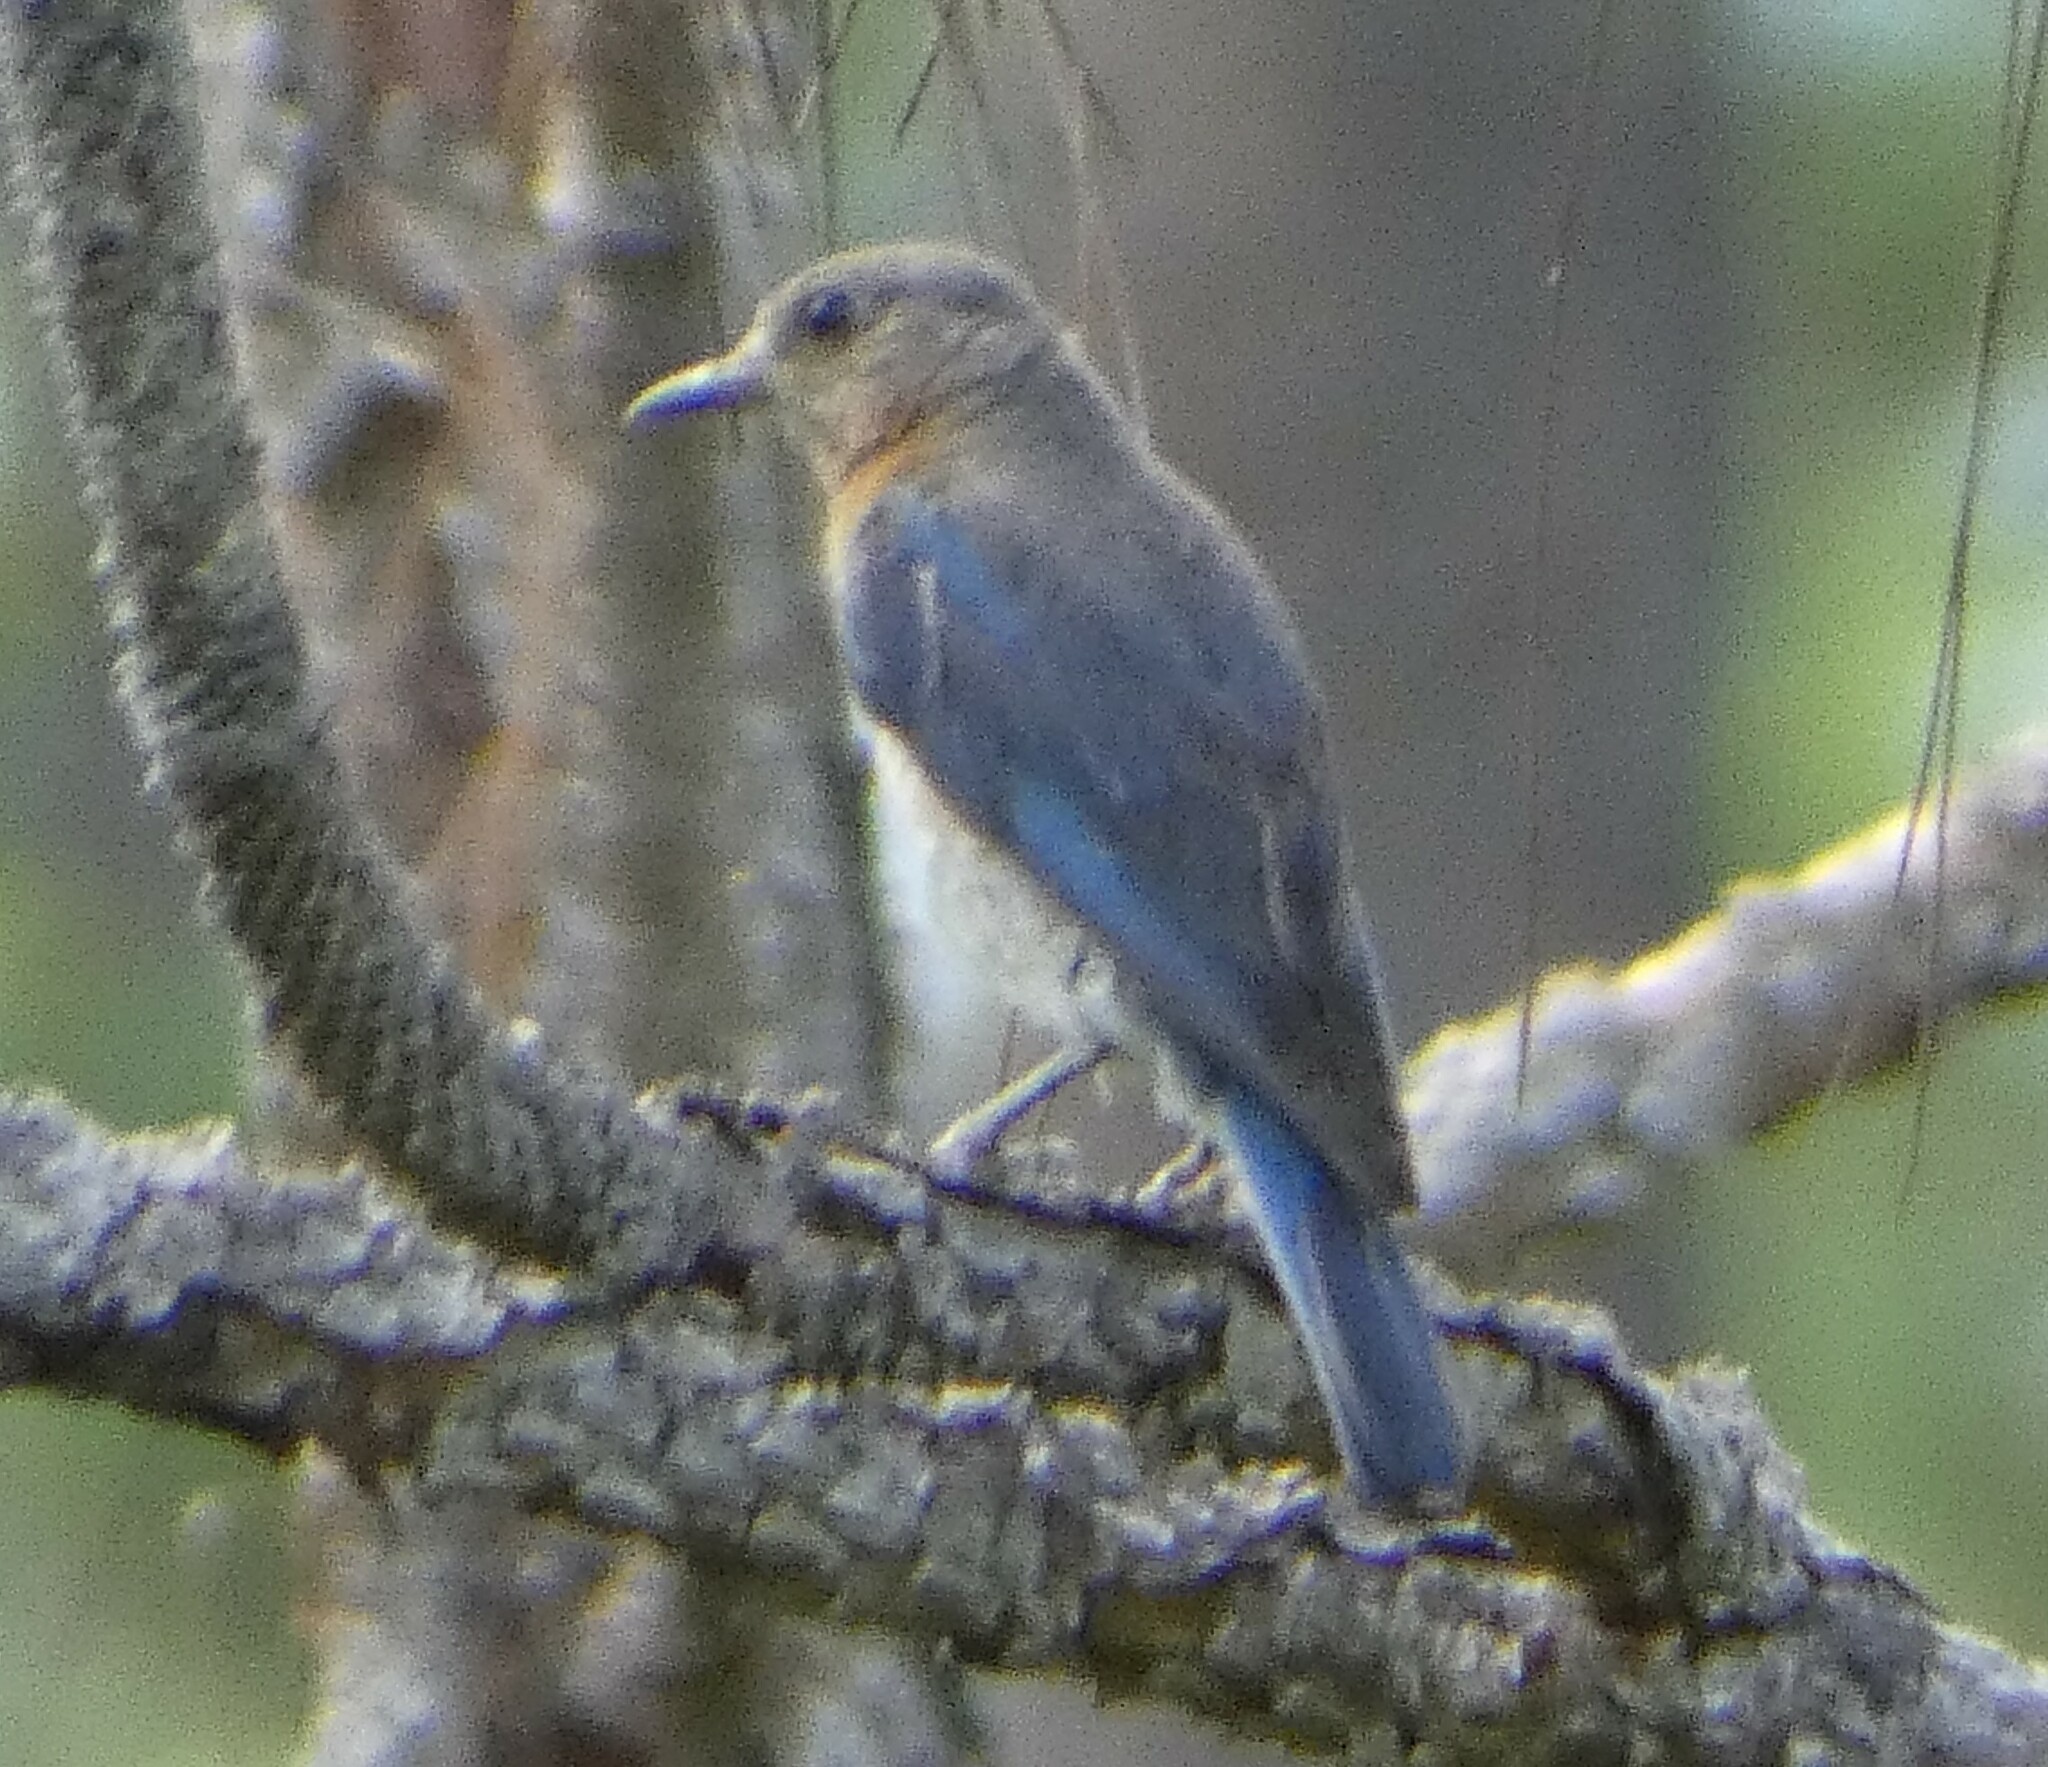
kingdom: Animalia
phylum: Chordata
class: Aves
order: Passeriformes
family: Turdidae
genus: Sialia
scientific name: Sialia sialis
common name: Eastern bluebird
